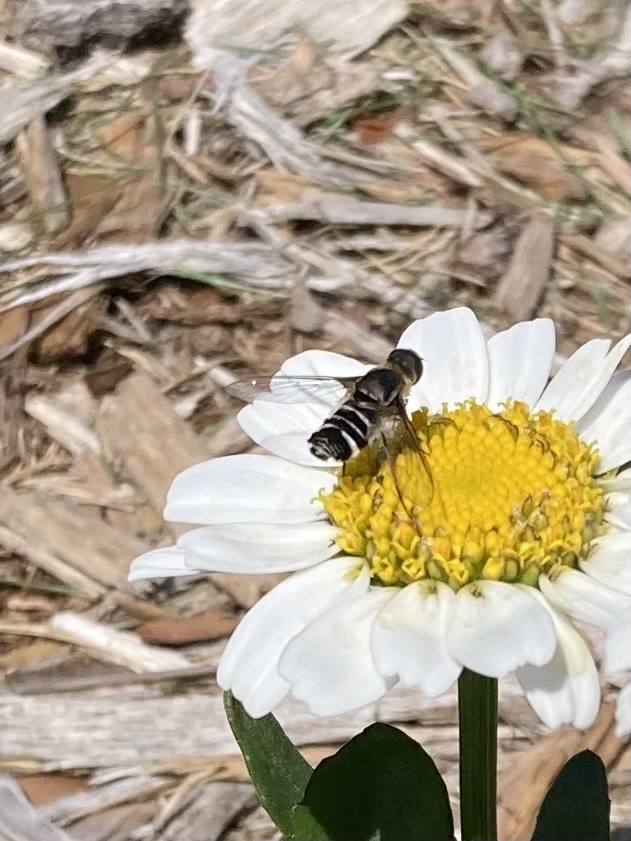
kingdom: Animalia
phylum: Arthropoda
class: Insecta
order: Diptera
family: Bombyliidae
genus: Villa
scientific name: Villa lateralis
